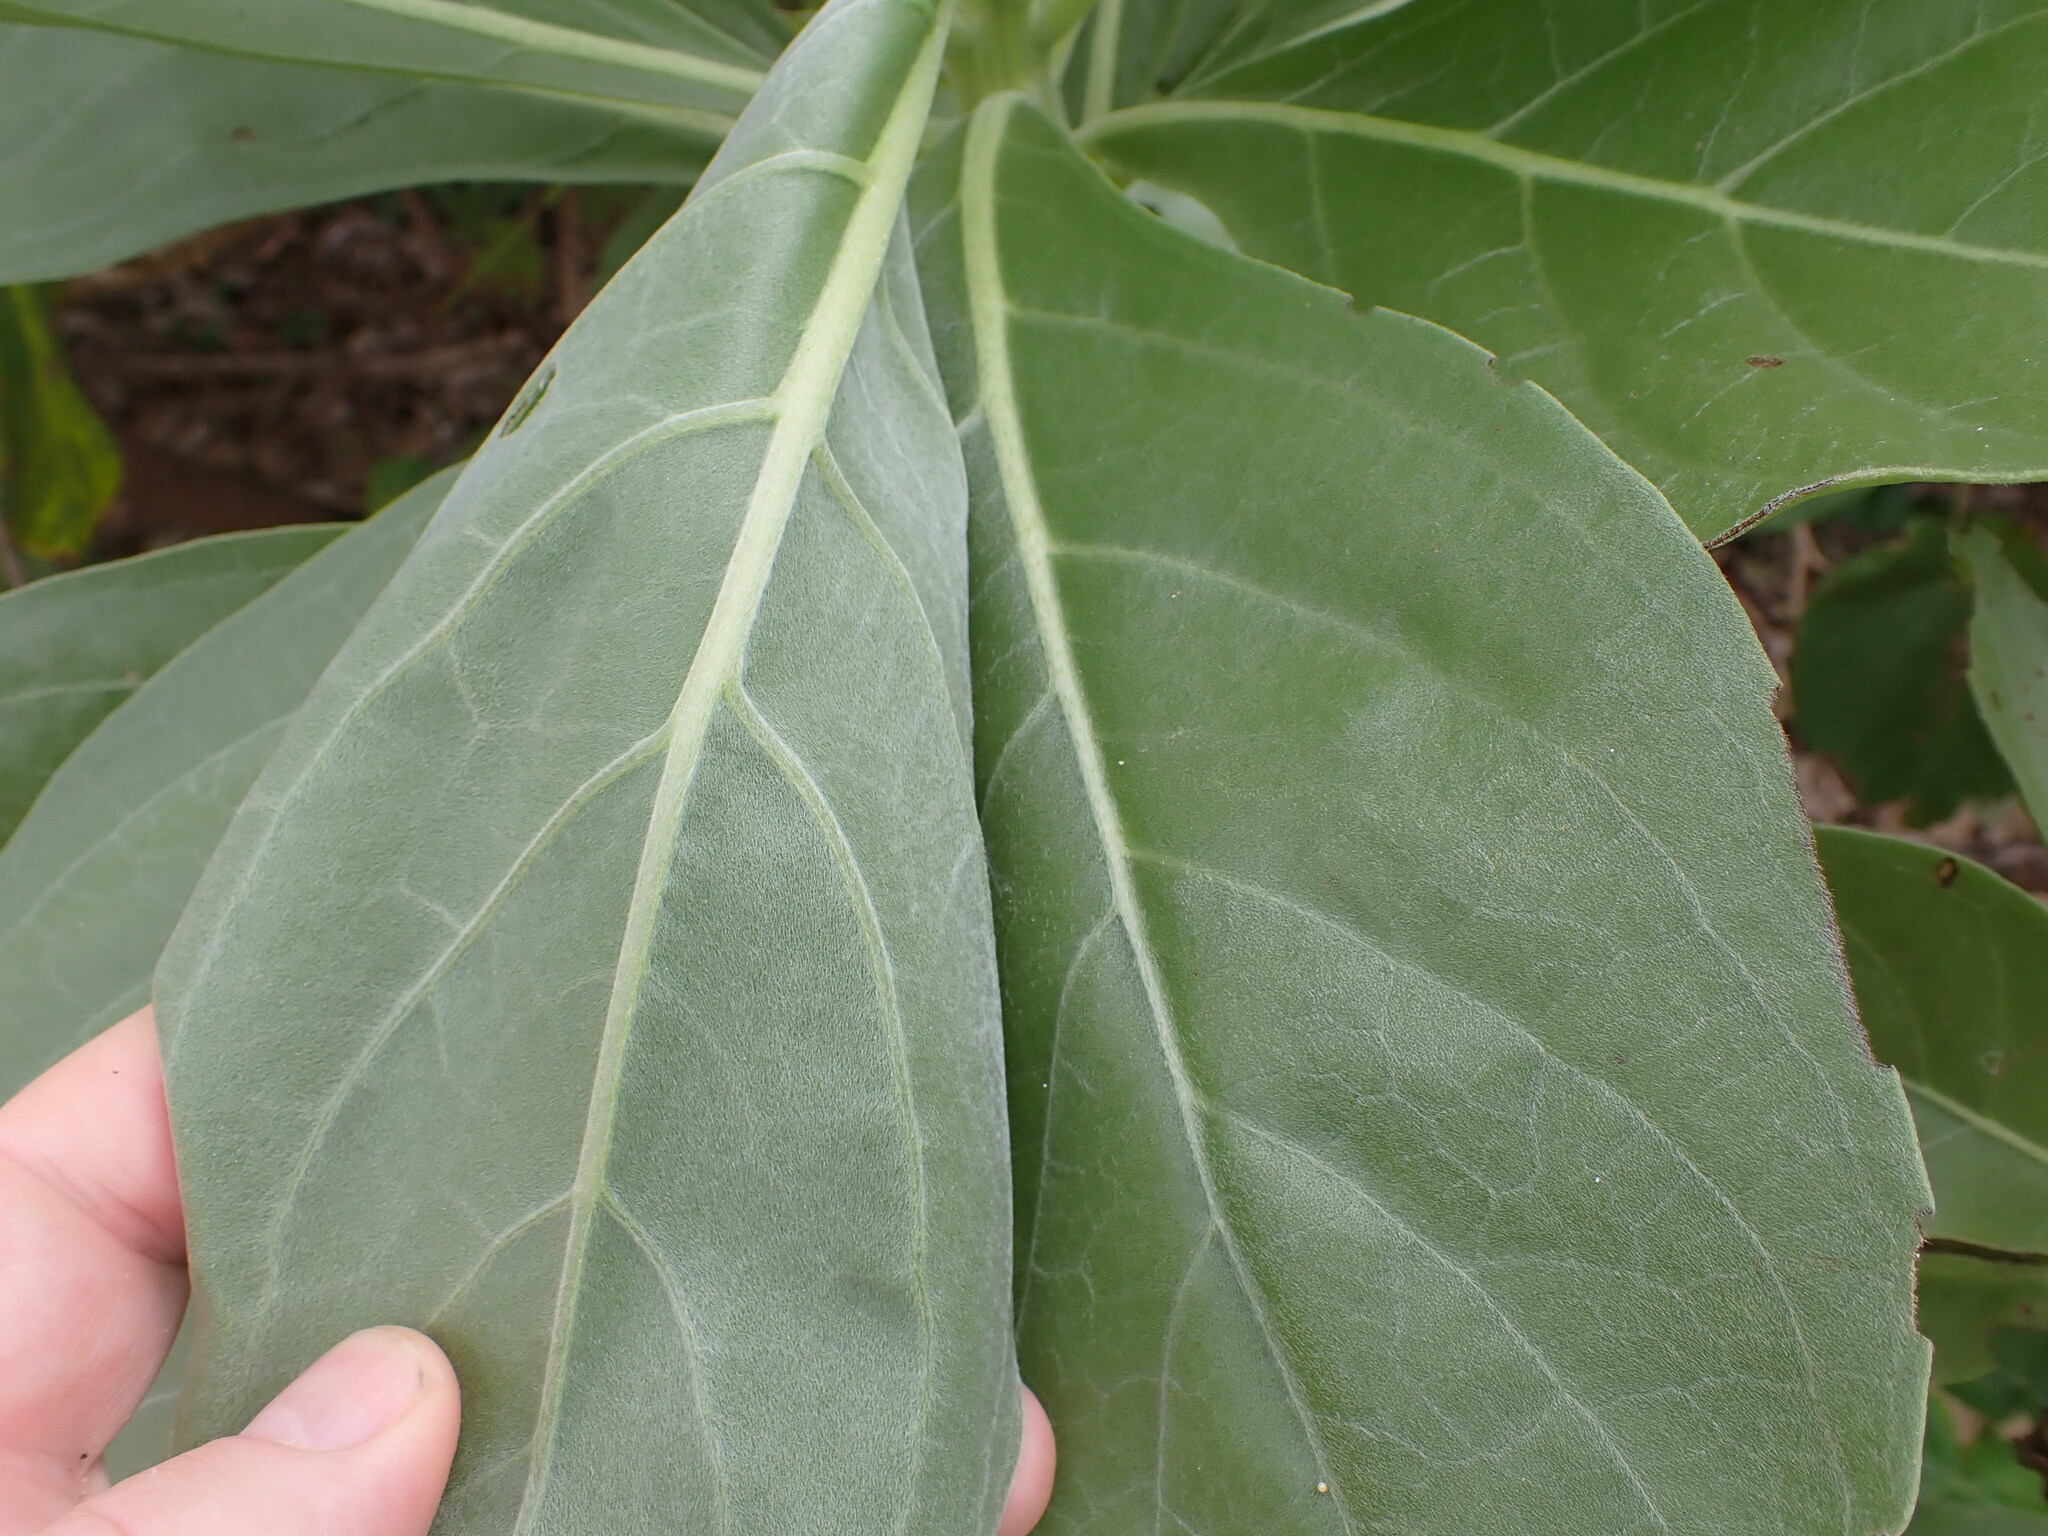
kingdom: Plantae
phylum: Tracheophyta
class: Magnoliopsida
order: Boraginales
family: Heliotropiaceae
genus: Heliotropium
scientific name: Heliotropium velutinum
